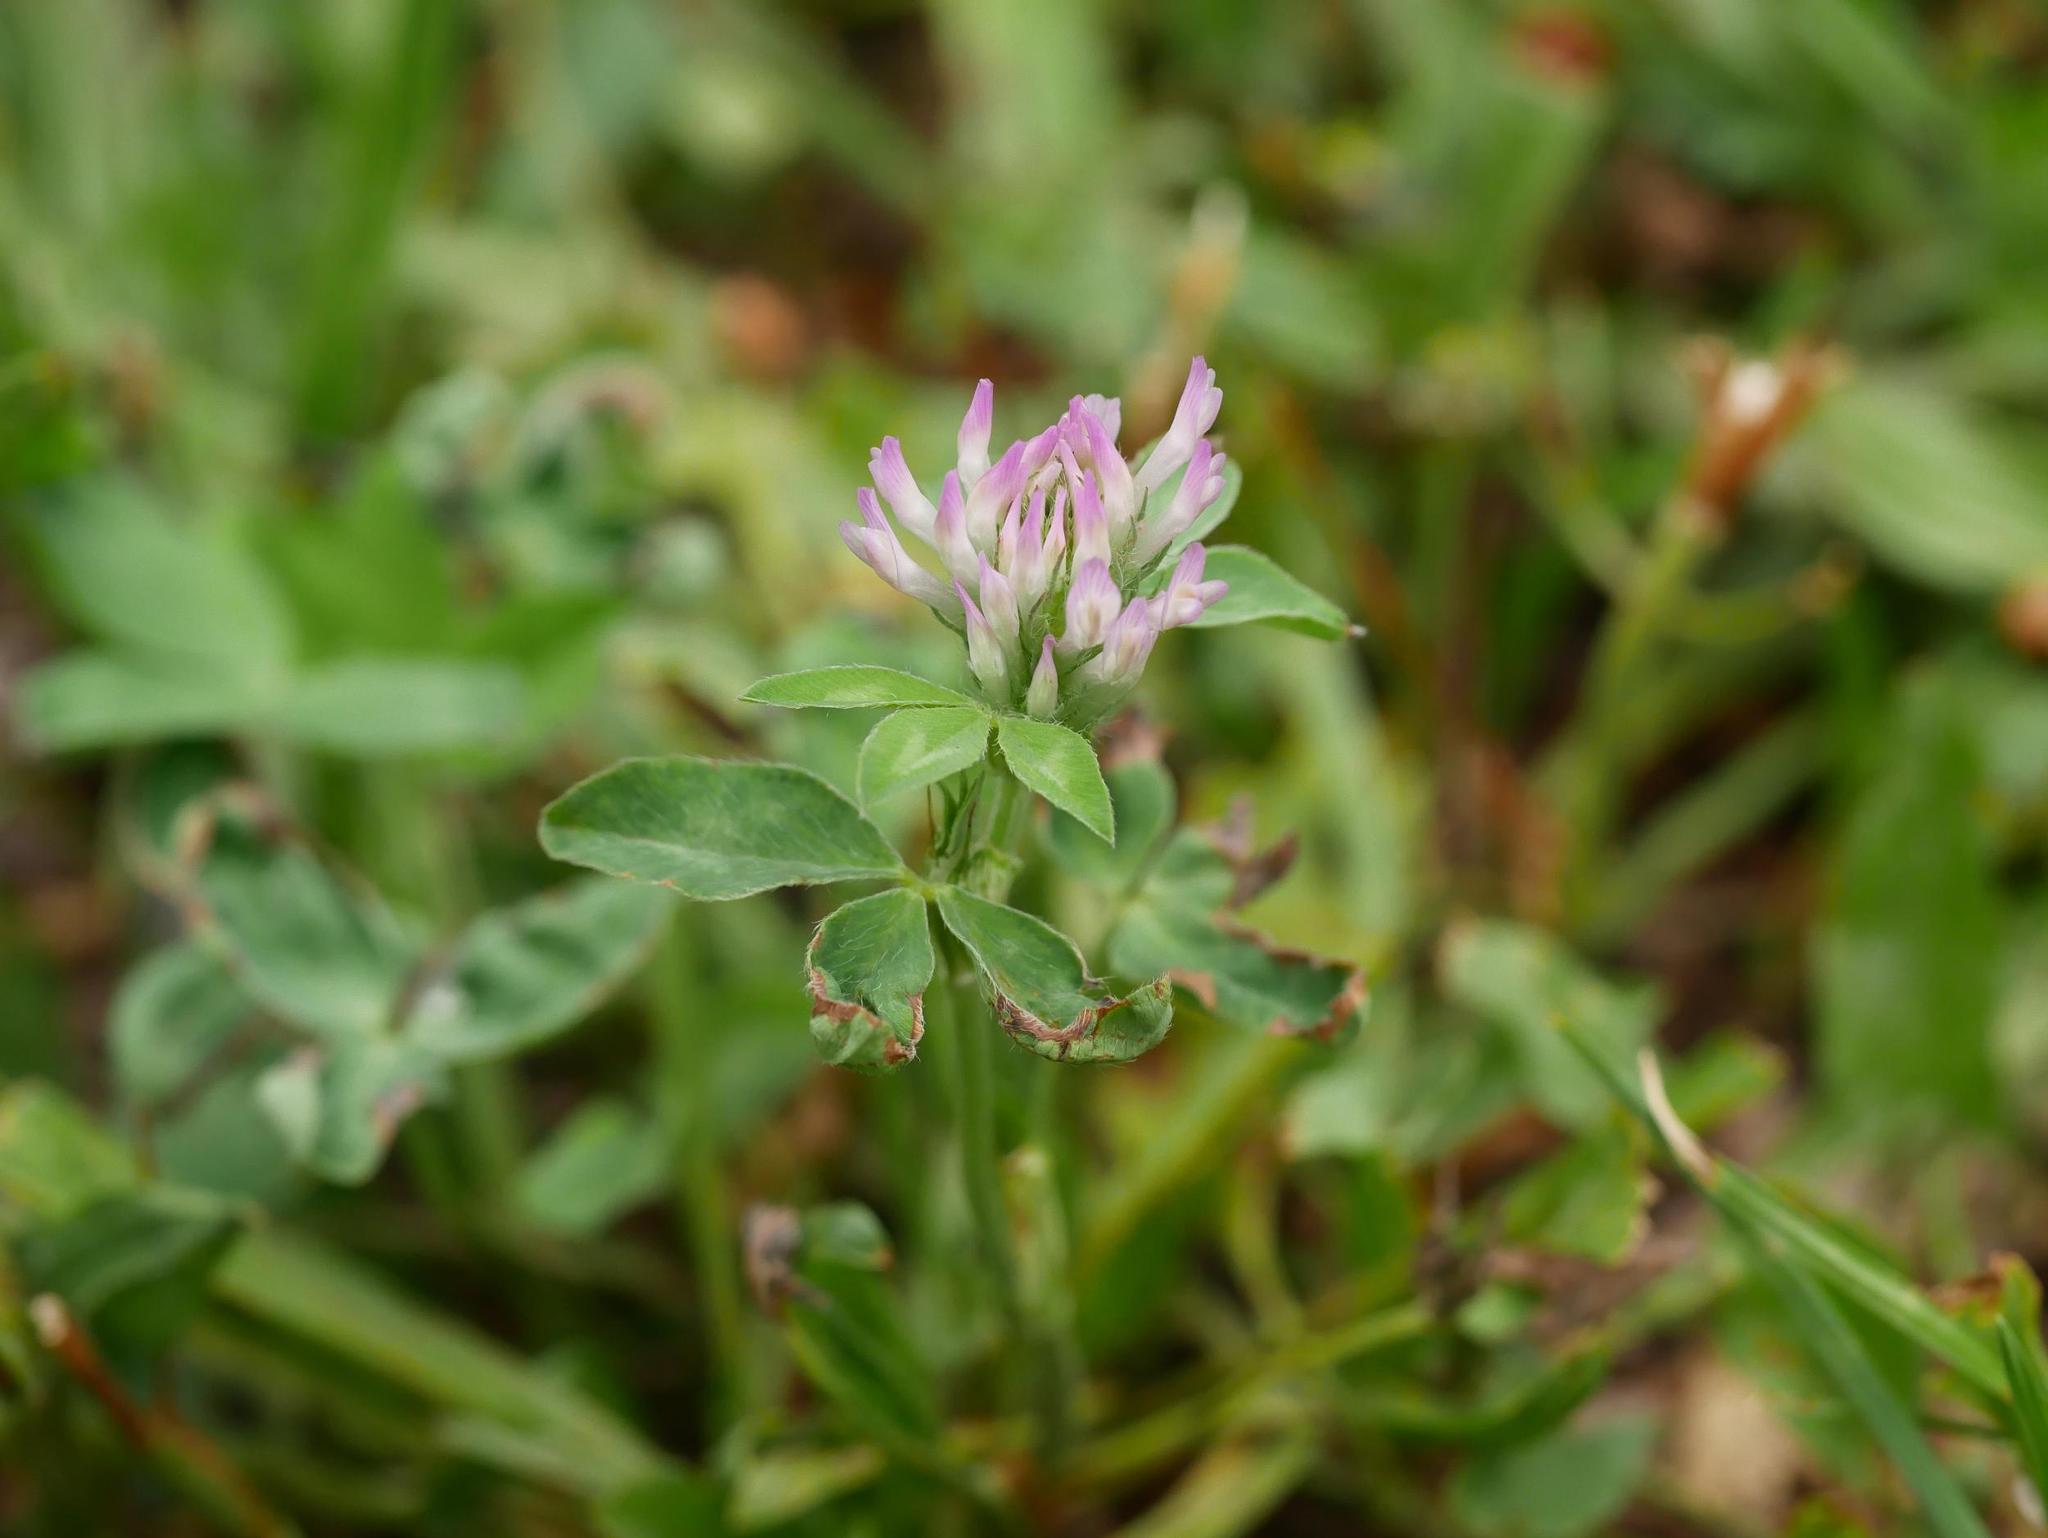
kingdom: Plantae
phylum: Tracheophyta
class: Magnoliopsida
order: Fabales
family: Fabaceae
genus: Trifolium
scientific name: Trifolium pratense
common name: Red clover
